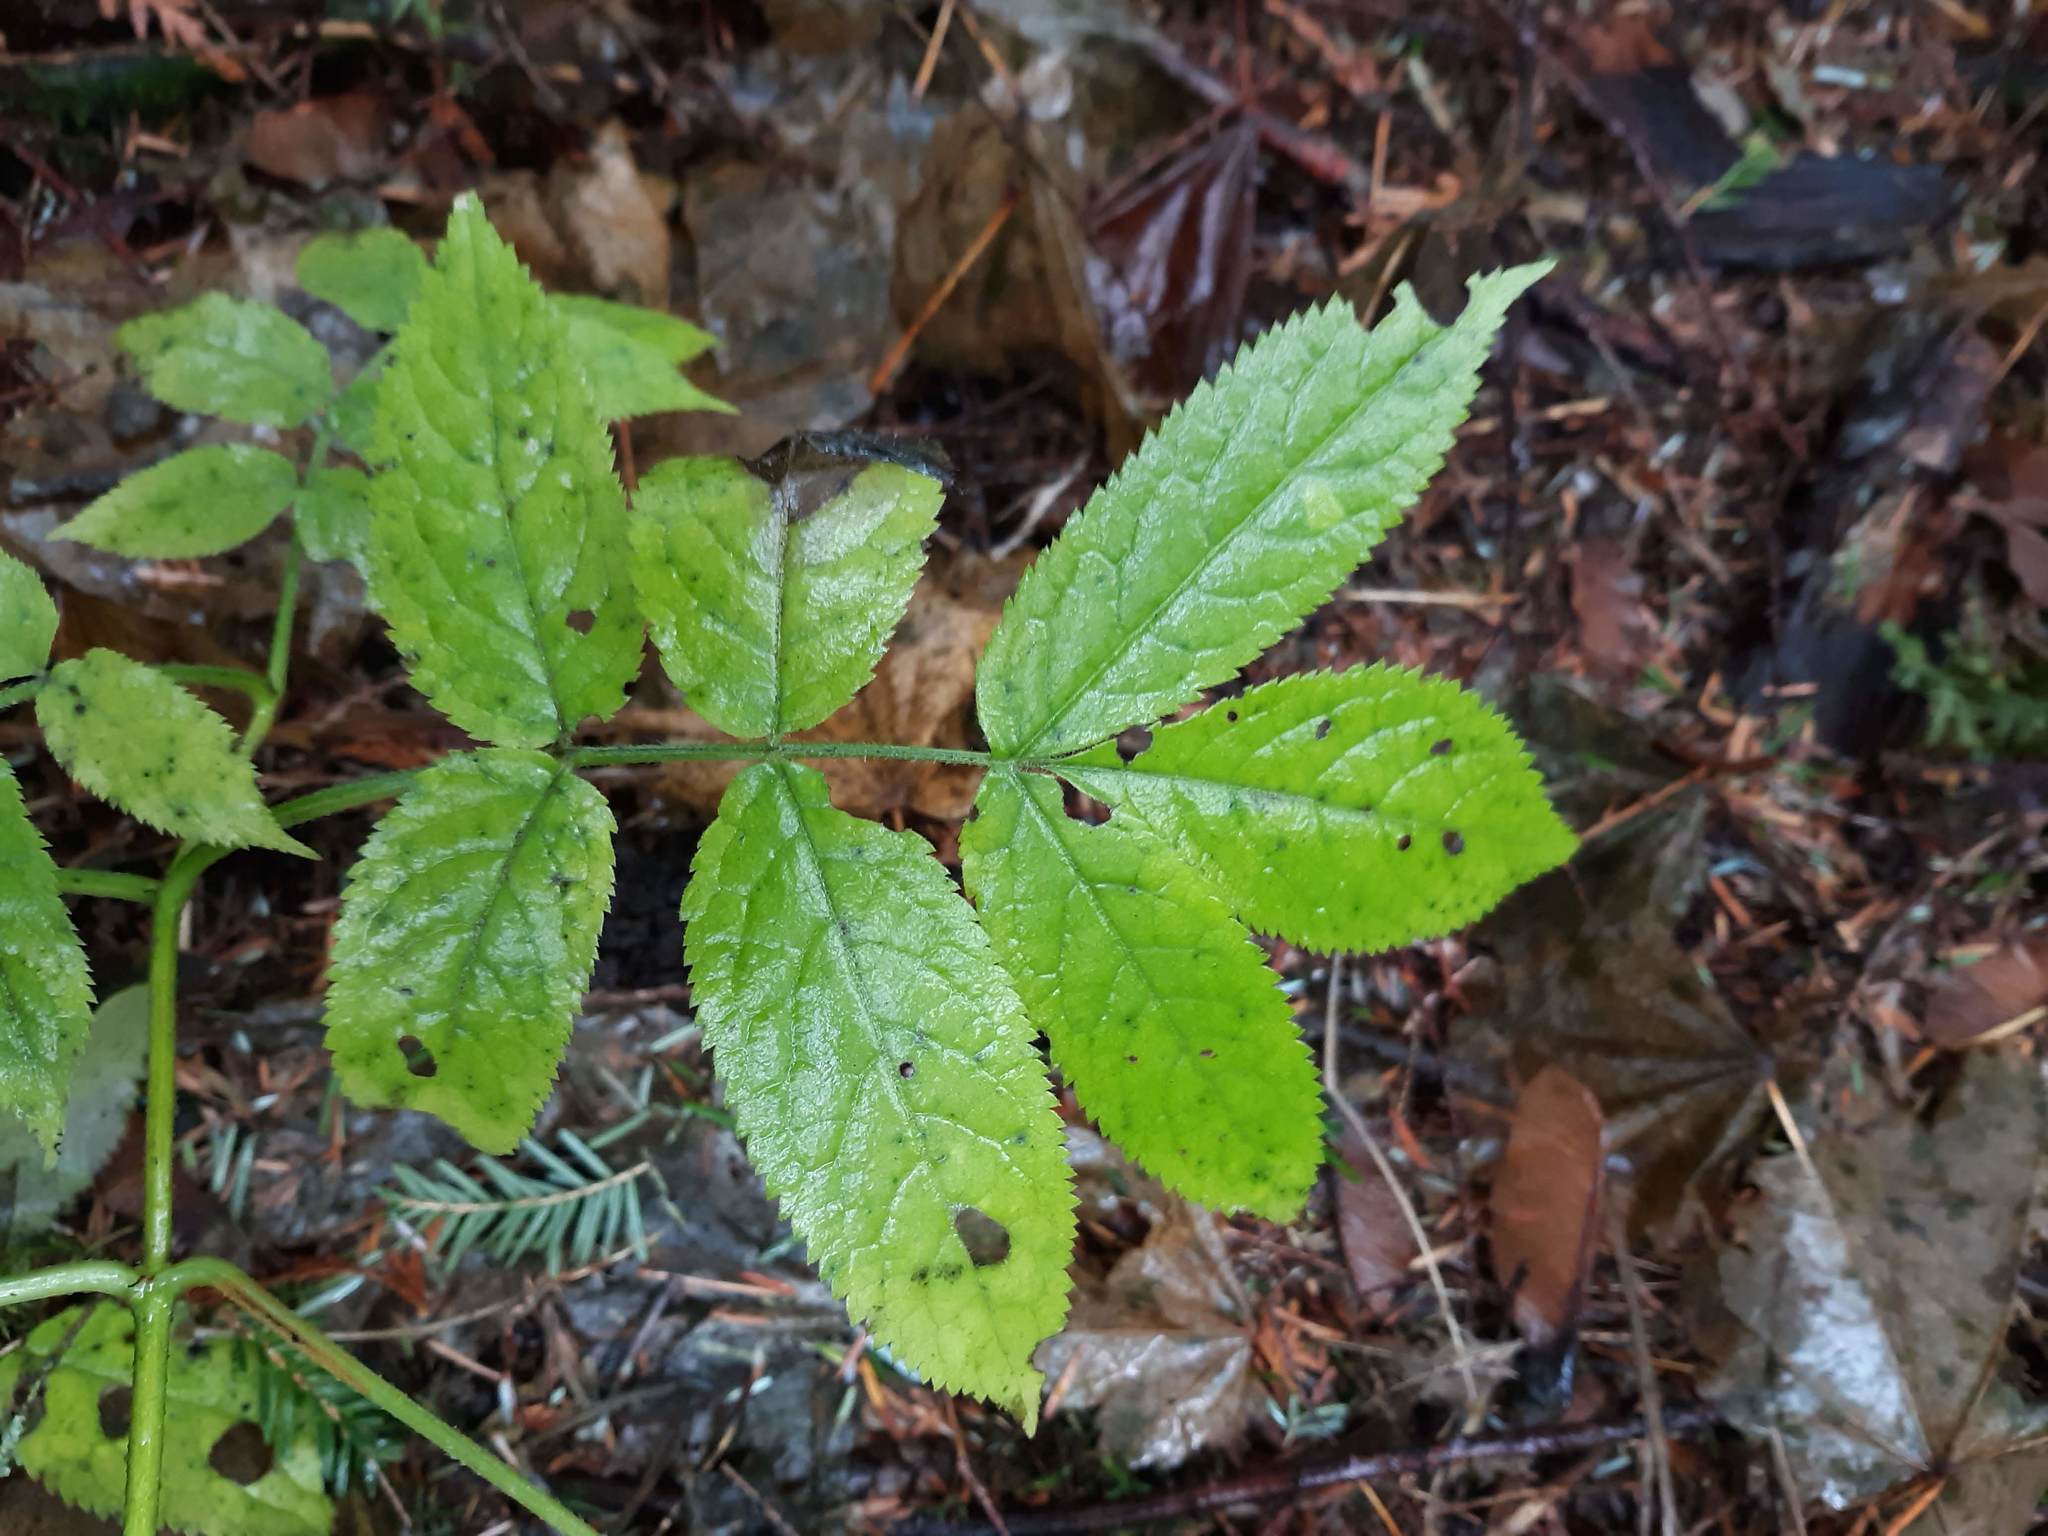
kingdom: Plantae
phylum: Tracheophyta
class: Magnoliopsida
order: Dipsacales
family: Viburnaceae
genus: Sambucus
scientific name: Sambucus racemosa
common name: Red-berried elder
